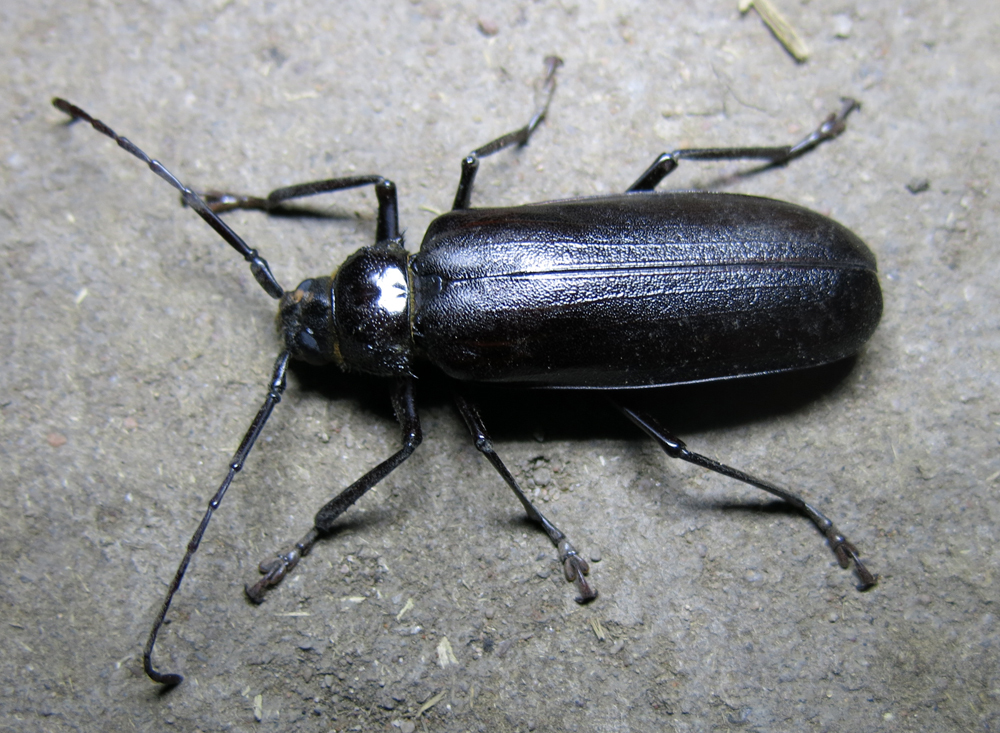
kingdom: Animalia
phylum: Arthropoda
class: Insecta
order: Coleoptera
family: Cerambycidae
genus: Macrotoma
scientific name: Macrotoma palmata
